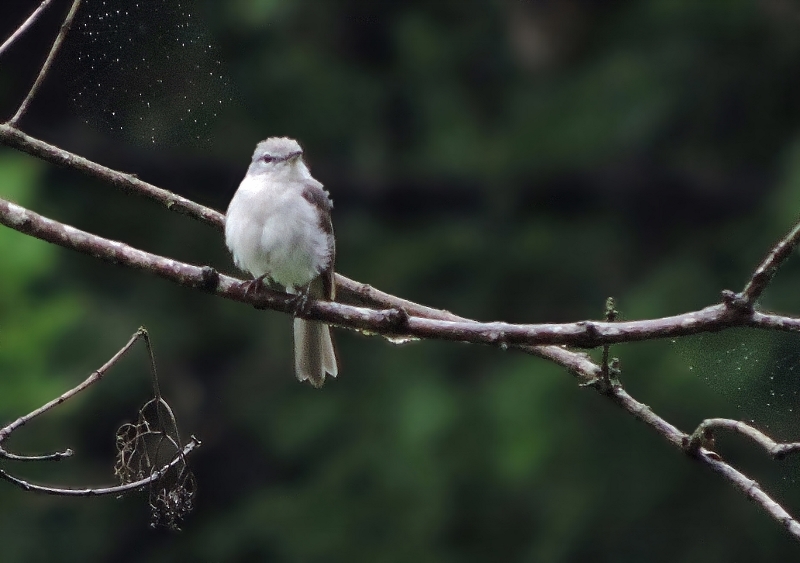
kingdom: Animalia
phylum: Chordata
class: Aves
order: Passeriformes
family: Muscicapidae
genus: Muscicapa
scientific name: Muscicapa caerulescens
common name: Ashy flycatcher
